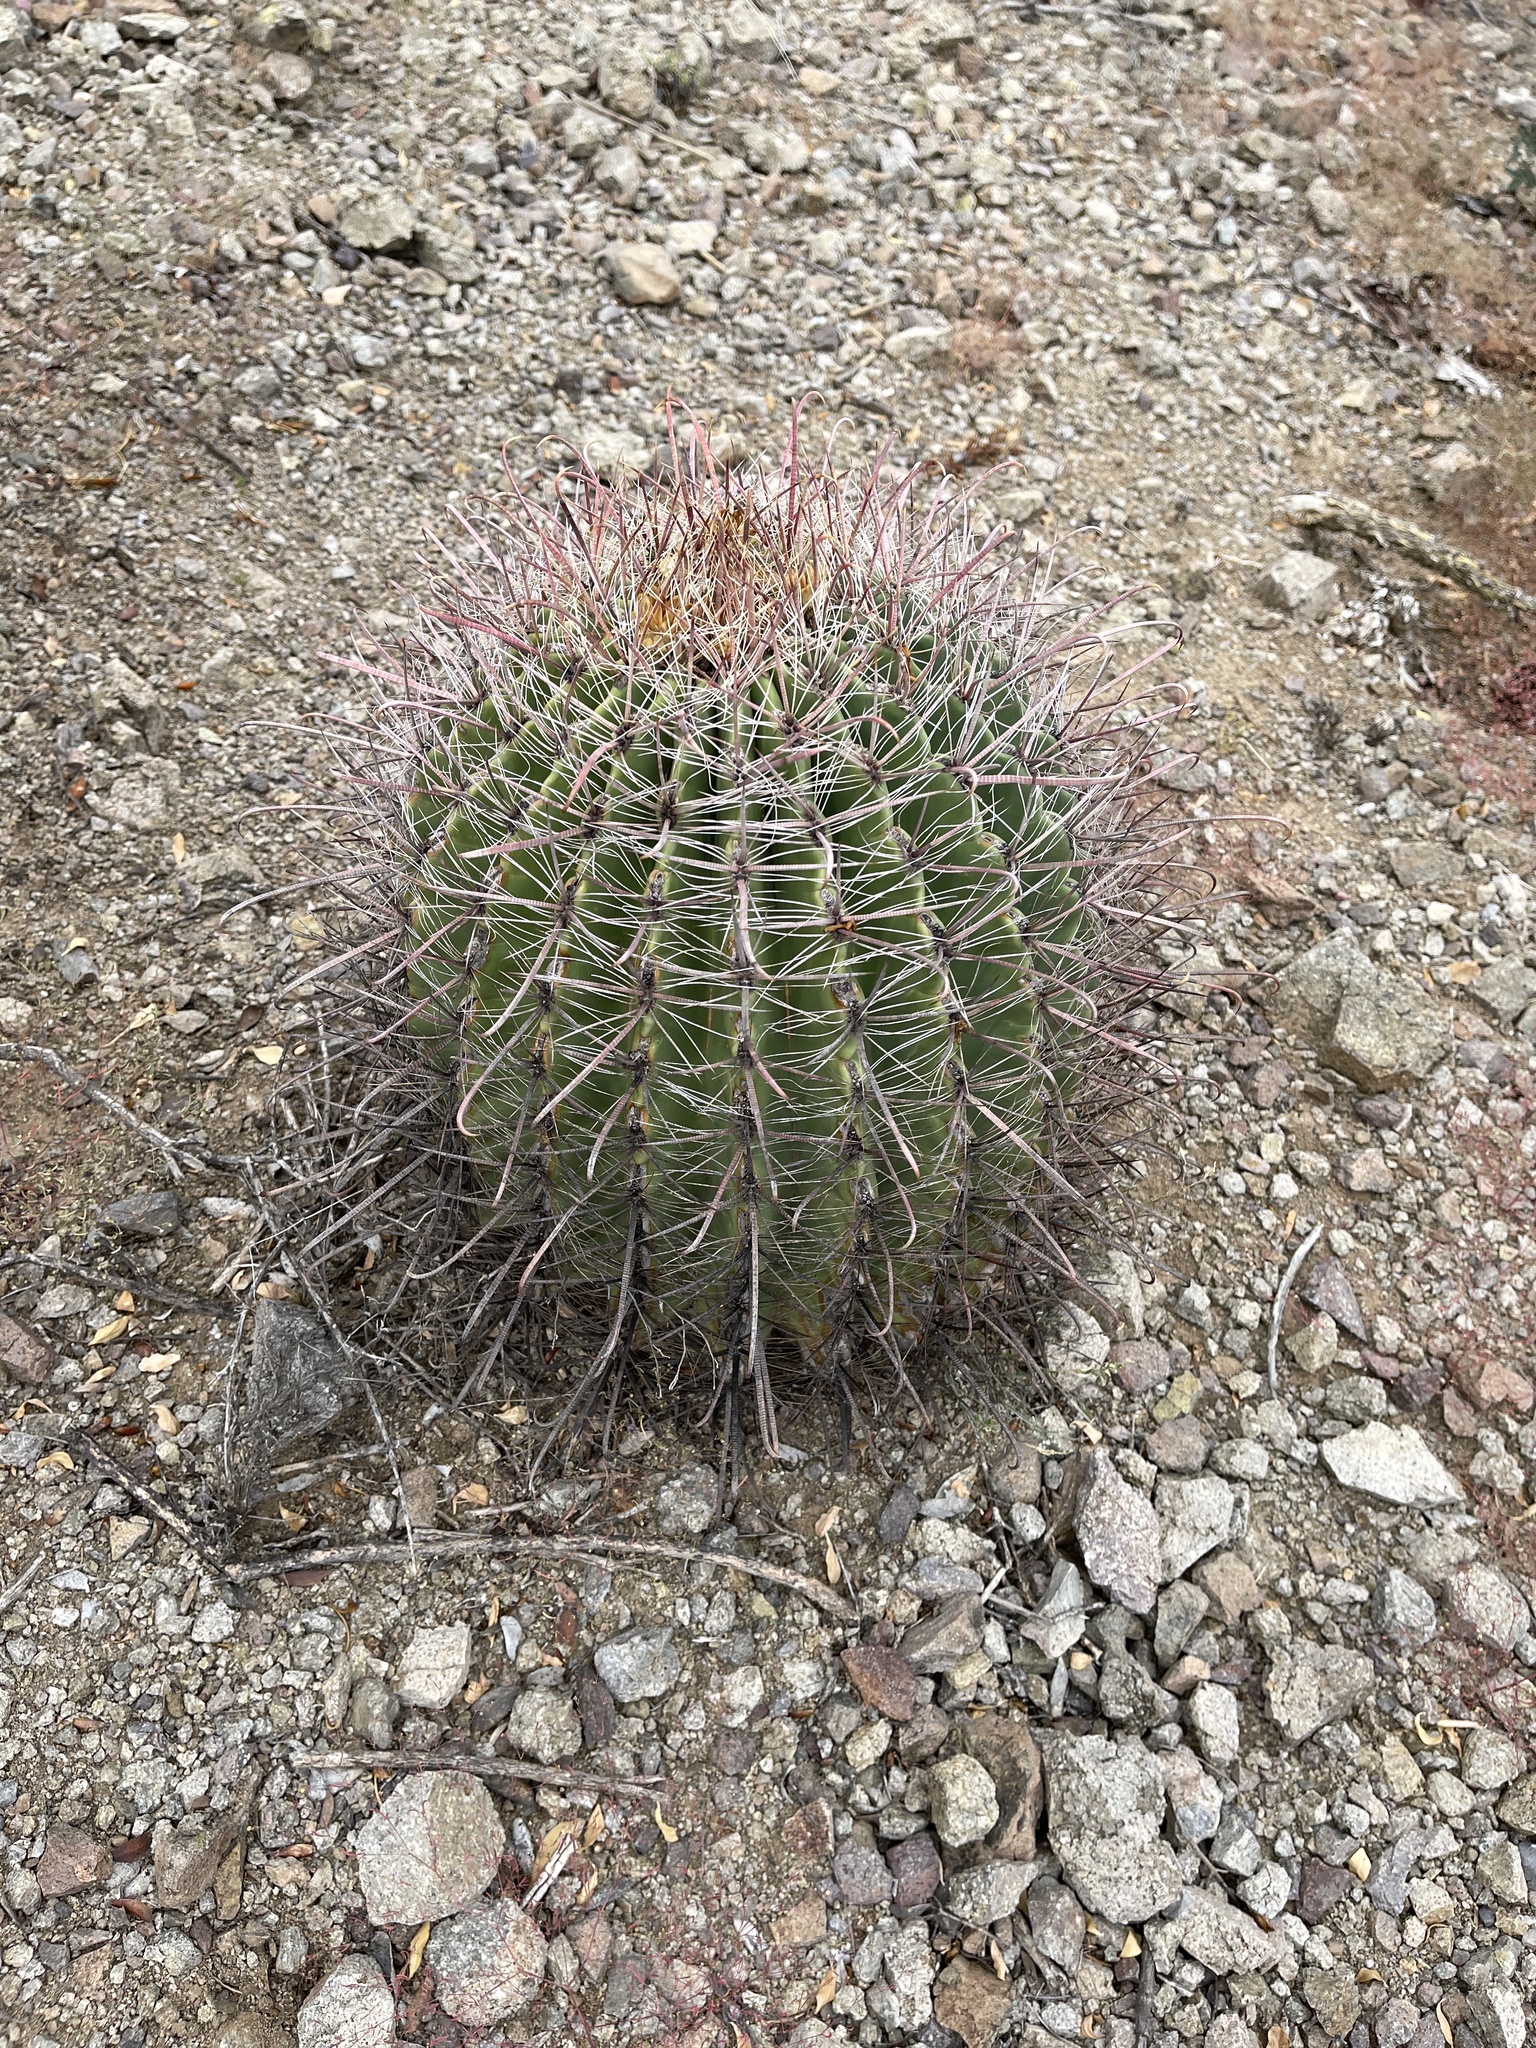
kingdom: Plantae
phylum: Tracheophyta
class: Magnoliopsida
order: Caryophyllales
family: Cactaceae
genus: Ferocactus
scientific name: Ferocactus wislizeni
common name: Candy barrel cactus
